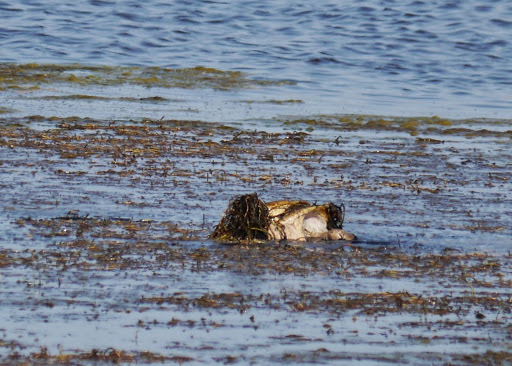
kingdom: Animalia
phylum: Chordata
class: Testudines
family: Chelydridae
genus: Chelydra
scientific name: Chelydra serpentina
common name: Common snapping turtle
